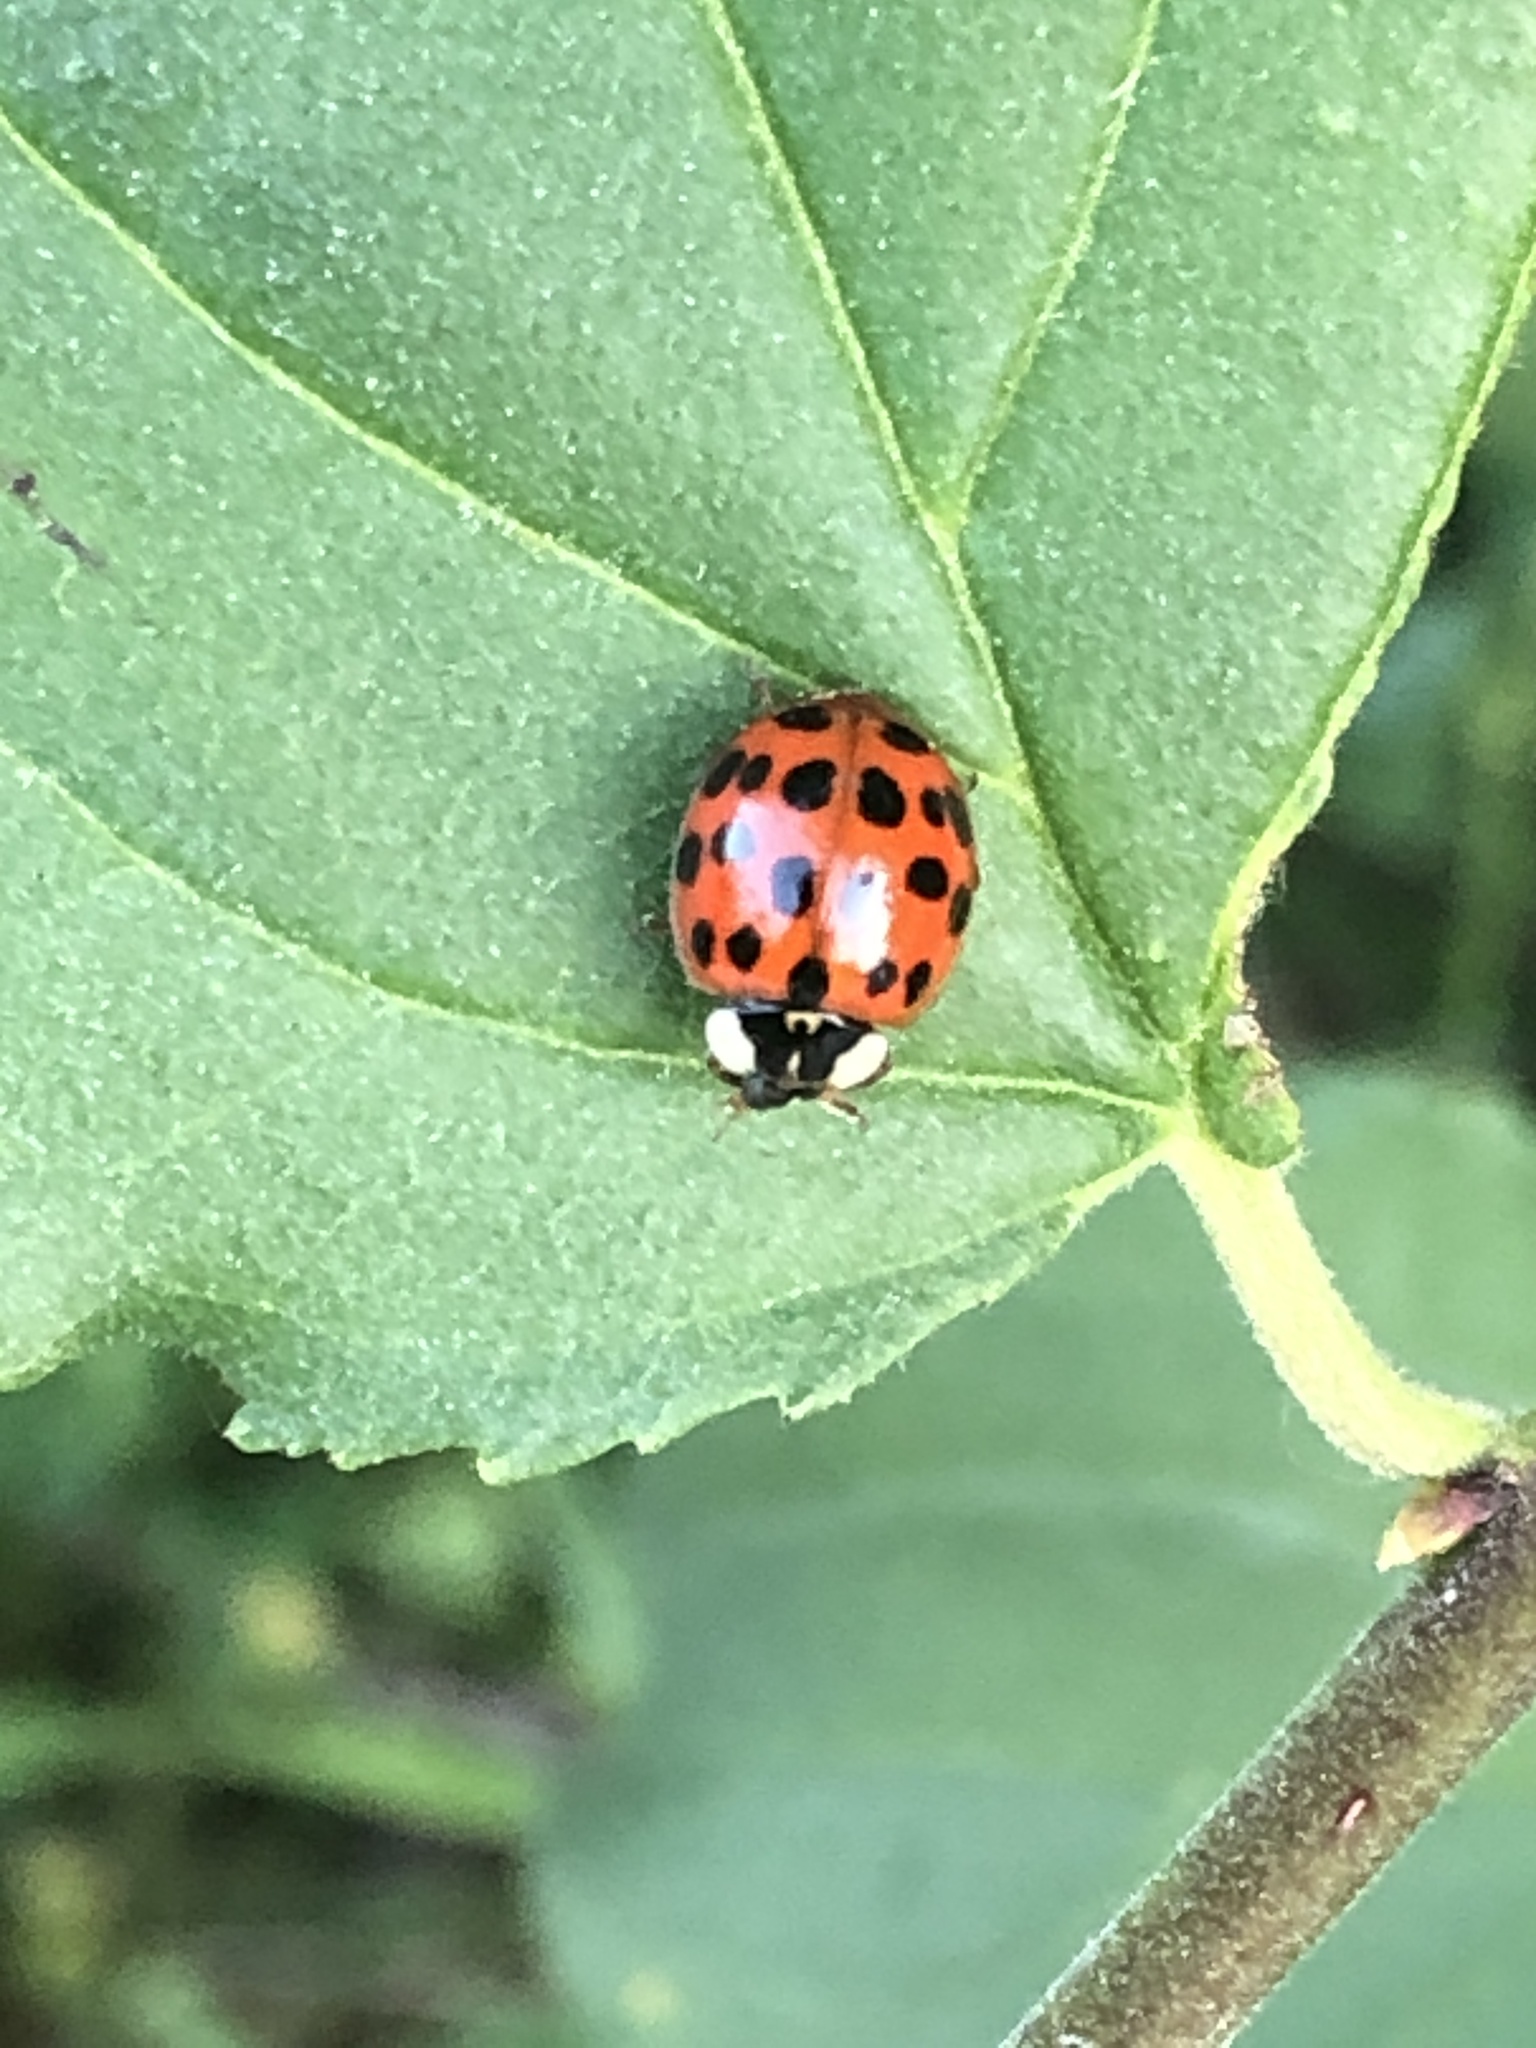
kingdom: Animalia
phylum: Arthropoda
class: Insecta
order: Coleoptera
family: Coccinellidae
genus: Harmonia
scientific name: Harmonia axyridis
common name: Harlequin ladybird
